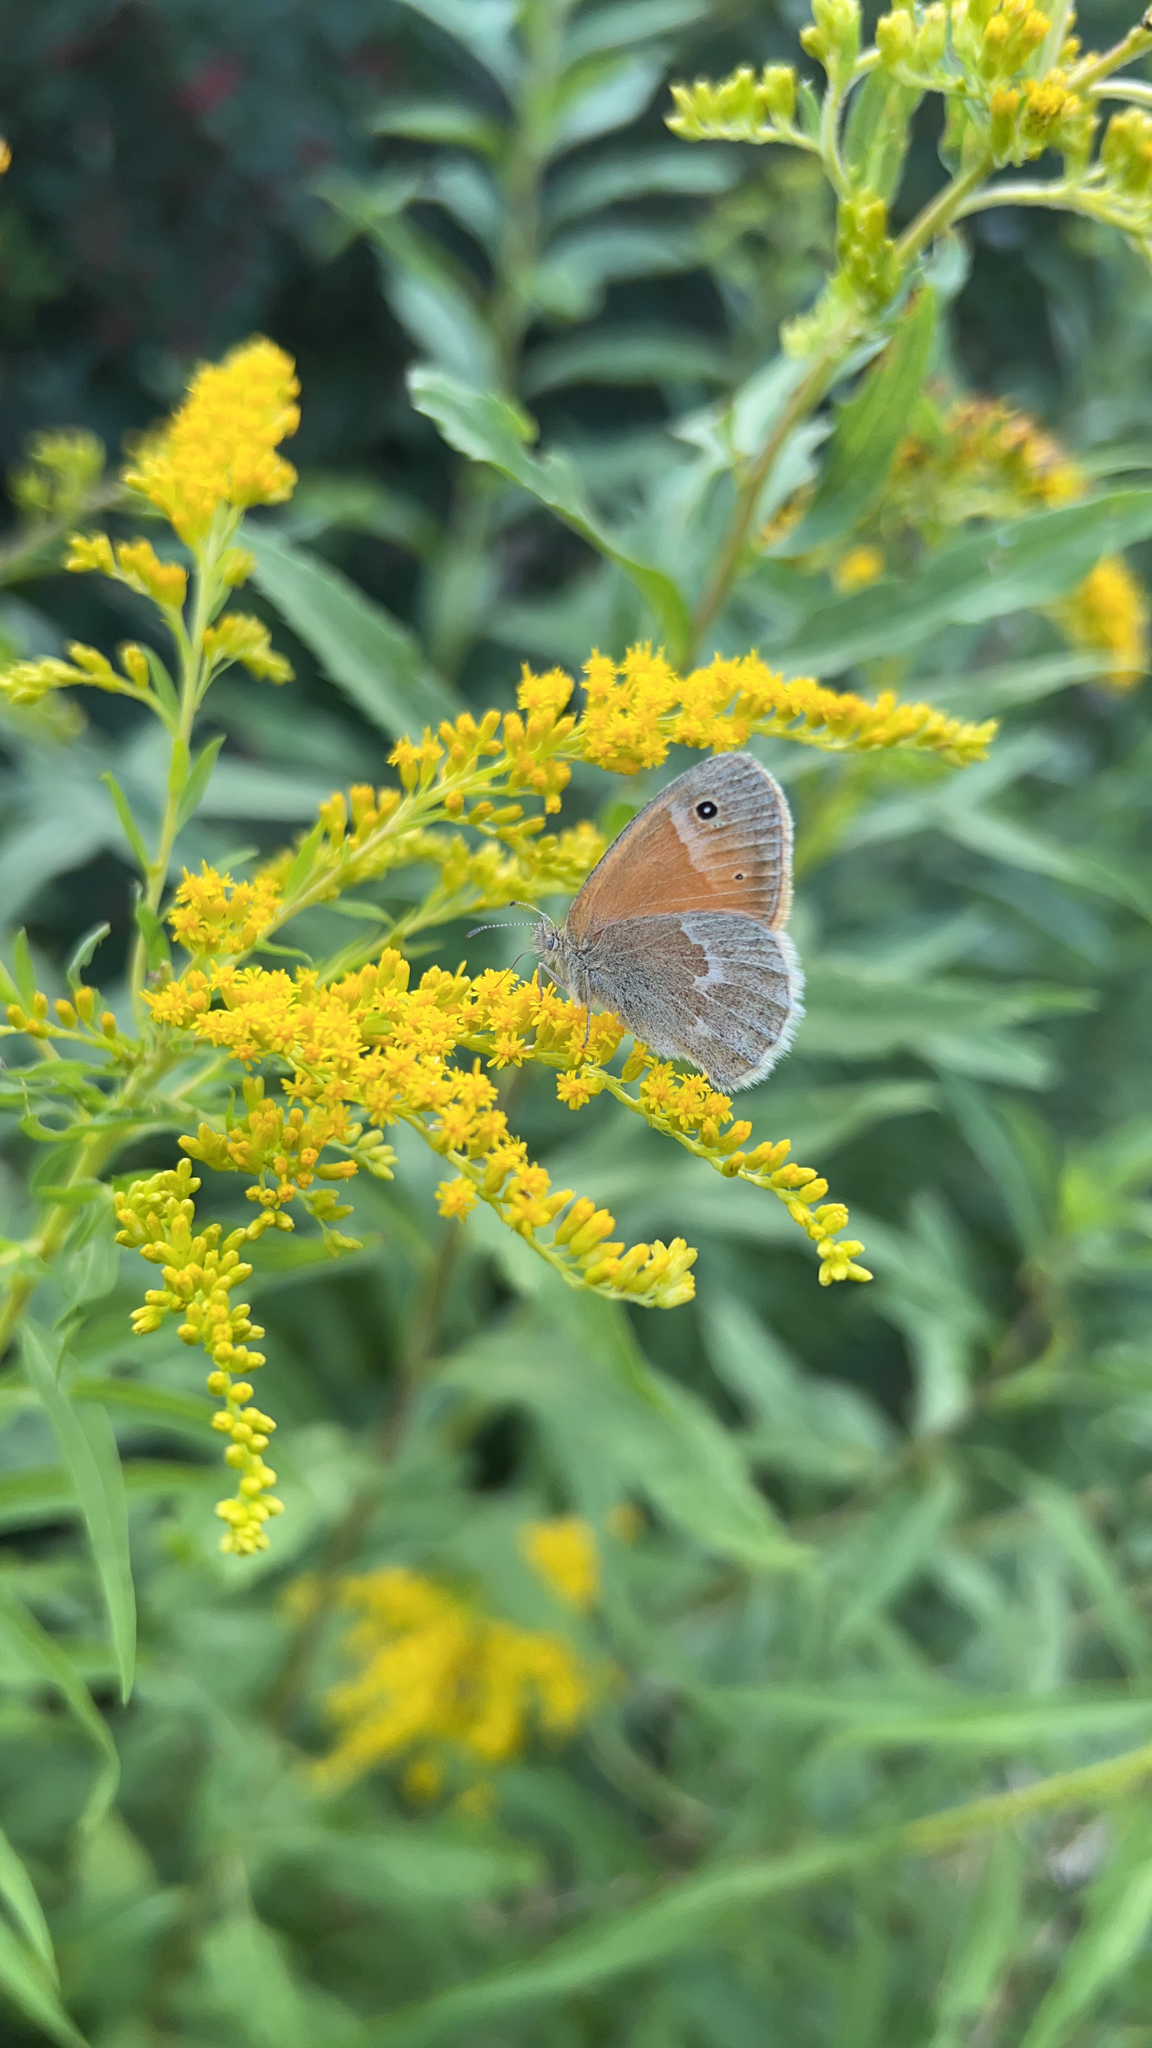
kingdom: Animalia
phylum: Arthropoda
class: Insecta
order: Lepidoptera
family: Nymphalidae
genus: Coenonympha
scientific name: Coenonympha california
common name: Common ringlet
